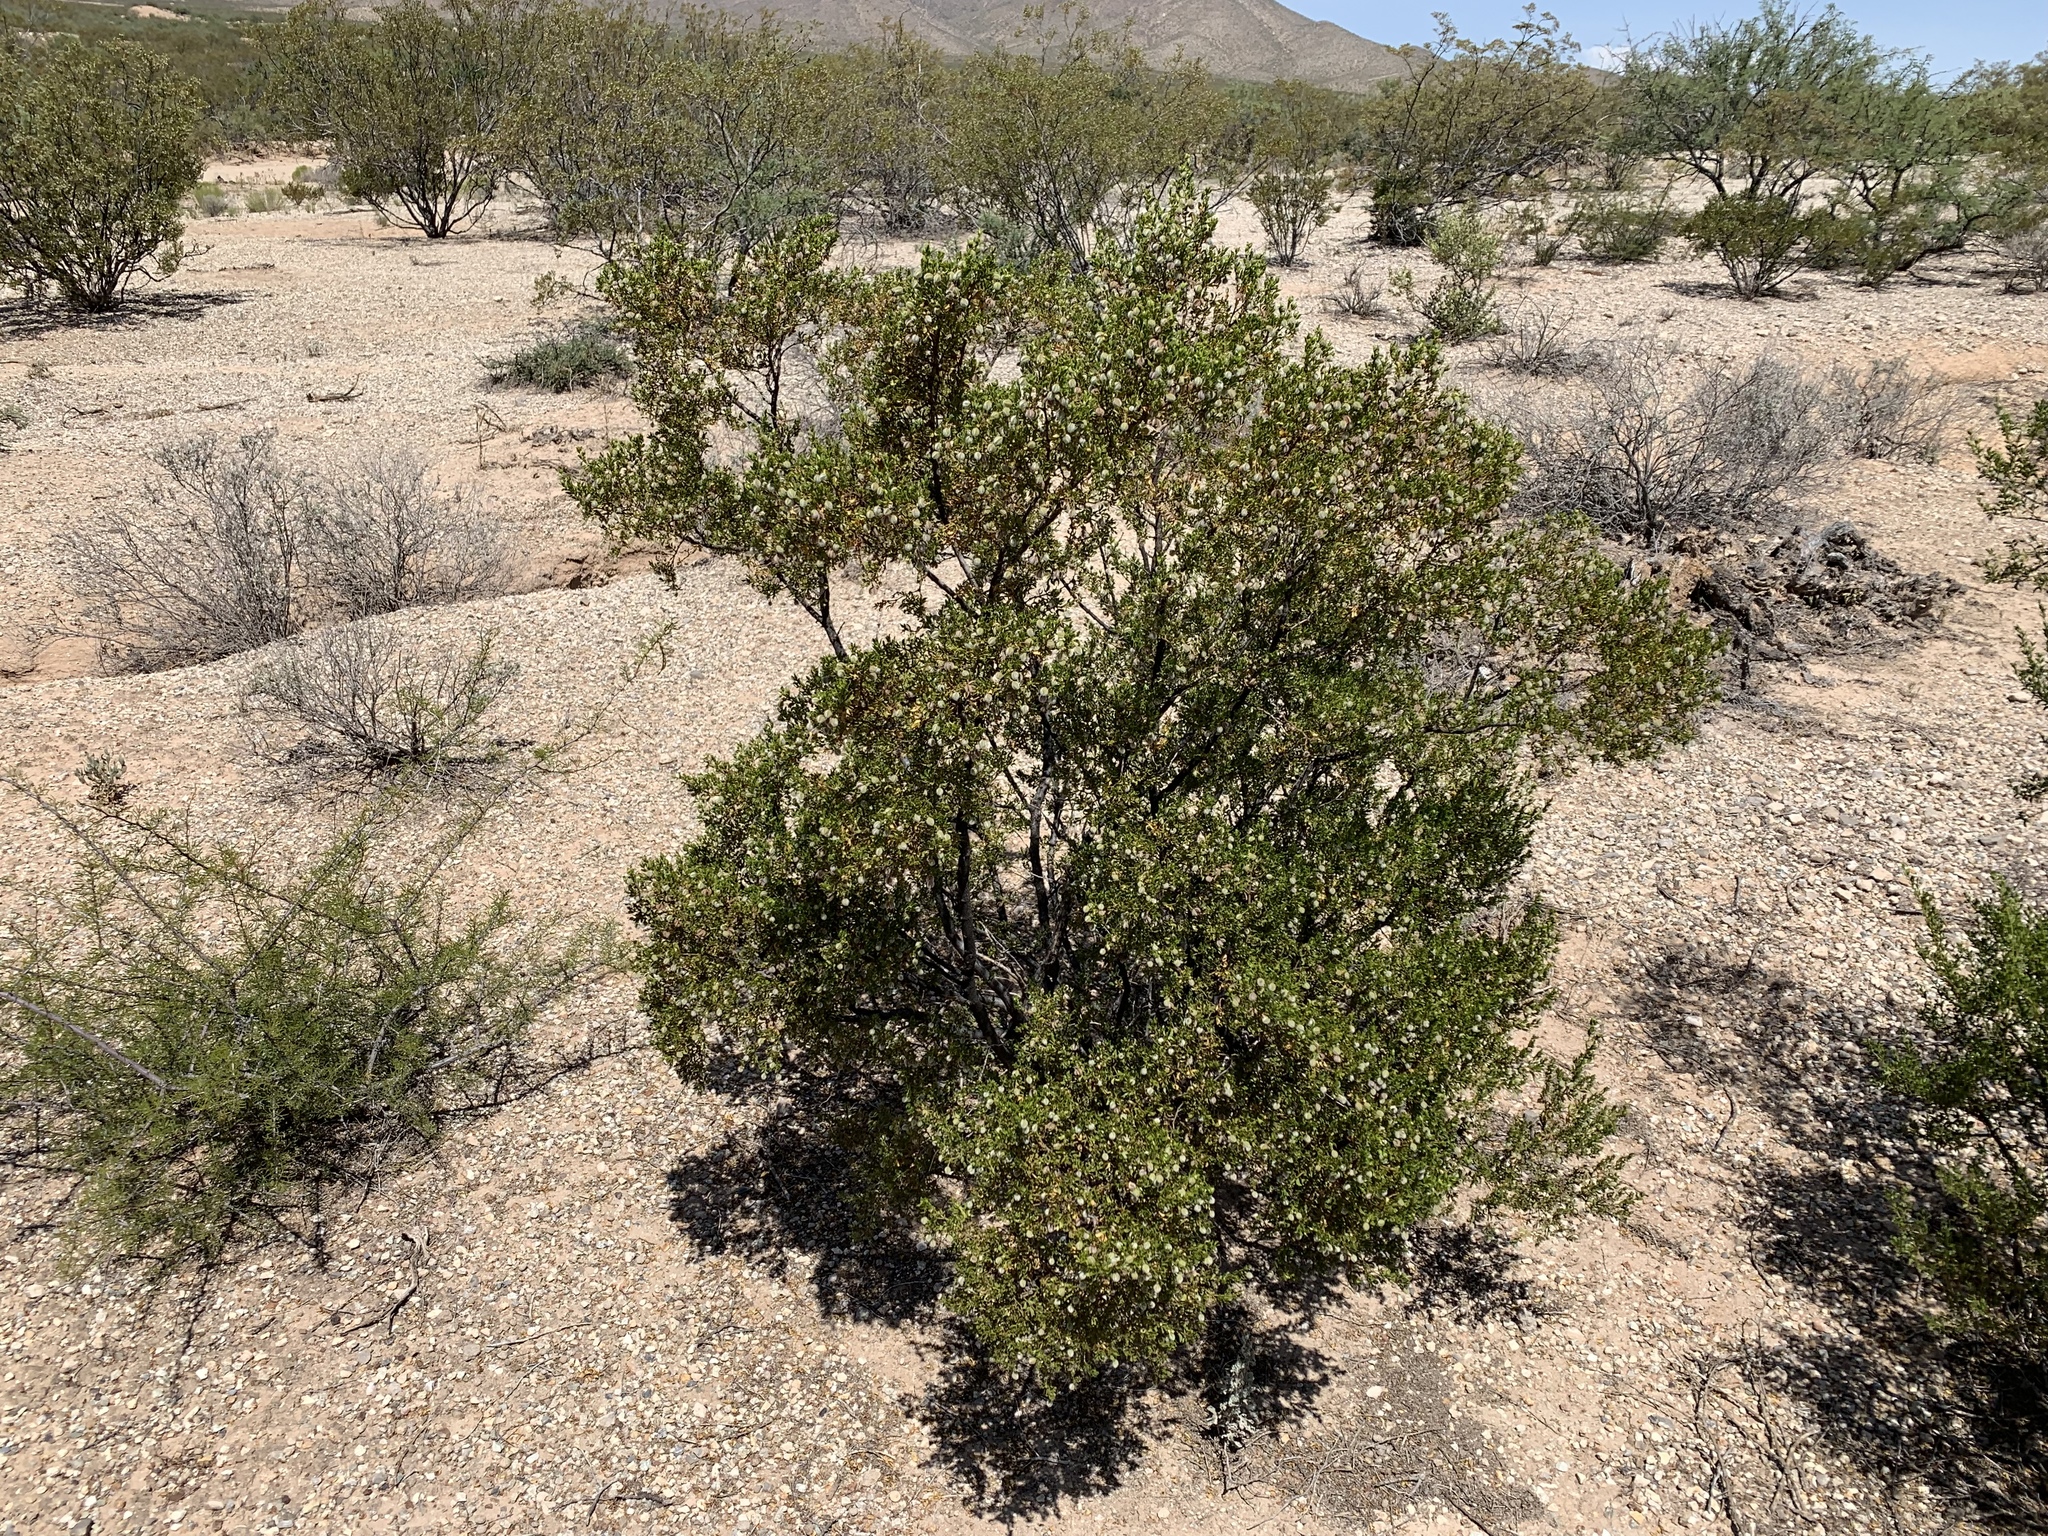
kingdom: Plantae
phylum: Tracheophyta
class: Magnoliopsida
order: Zygophyllales
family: Zygophyllaceae
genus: Larrea
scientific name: Larrea tridentata
